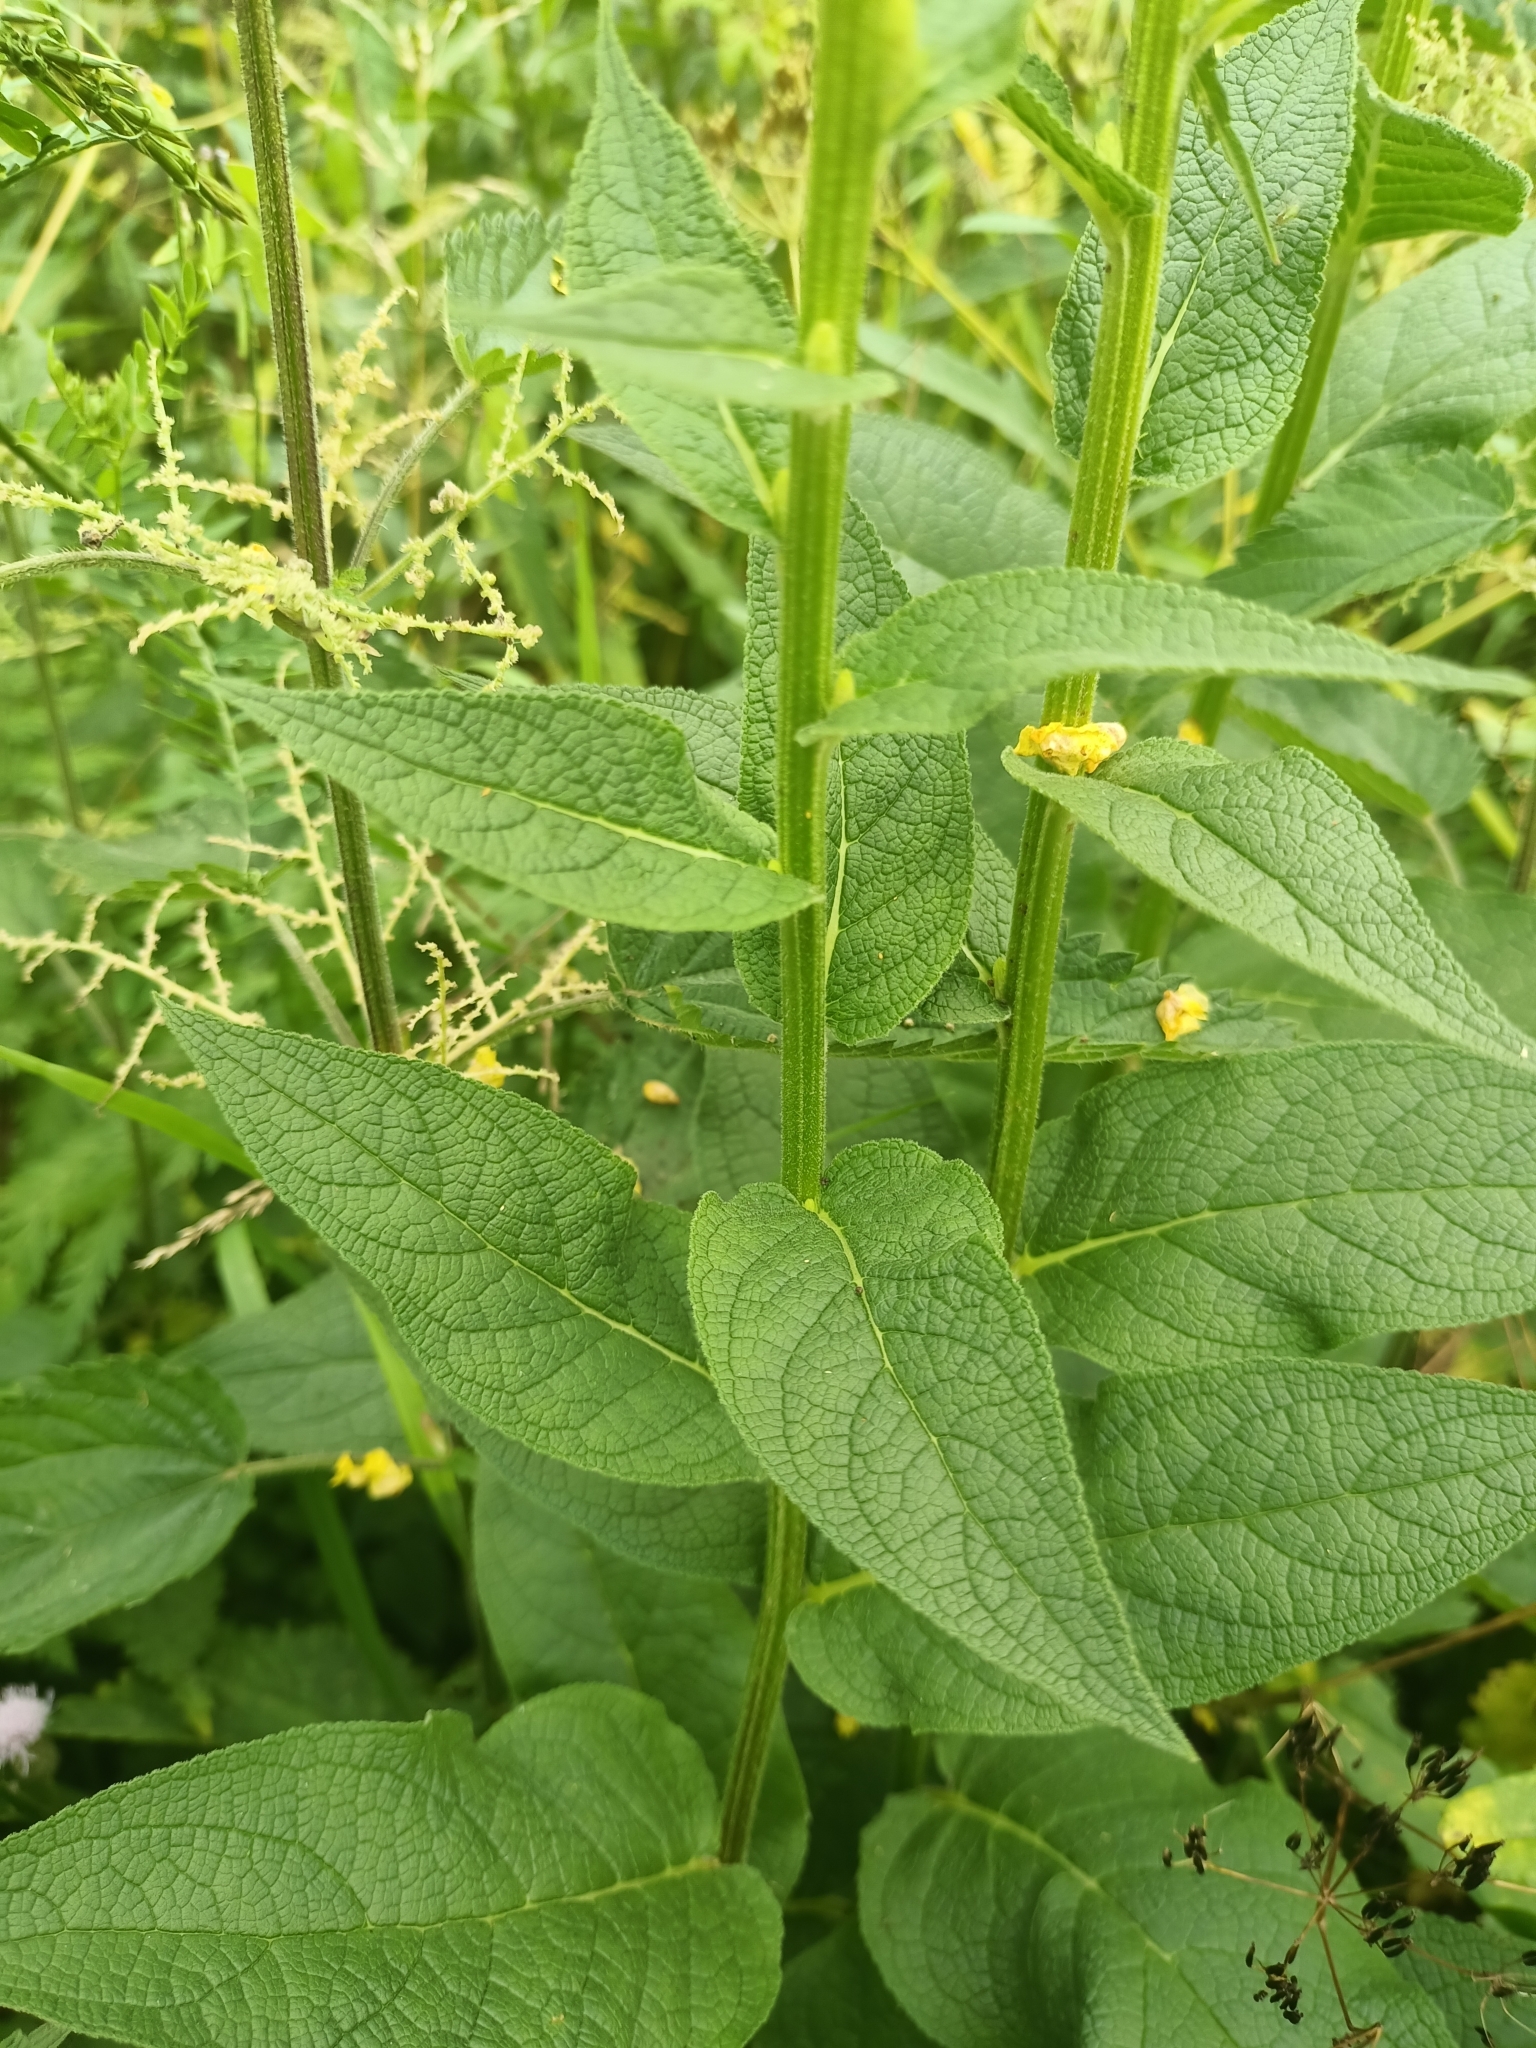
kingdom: Plantae
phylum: Tracheophyta
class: Magnoliopsida
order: Lamiales
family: Scrophulariaceae
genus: Verbascum
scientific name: Verbascum nigrum
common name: Dark mullein
